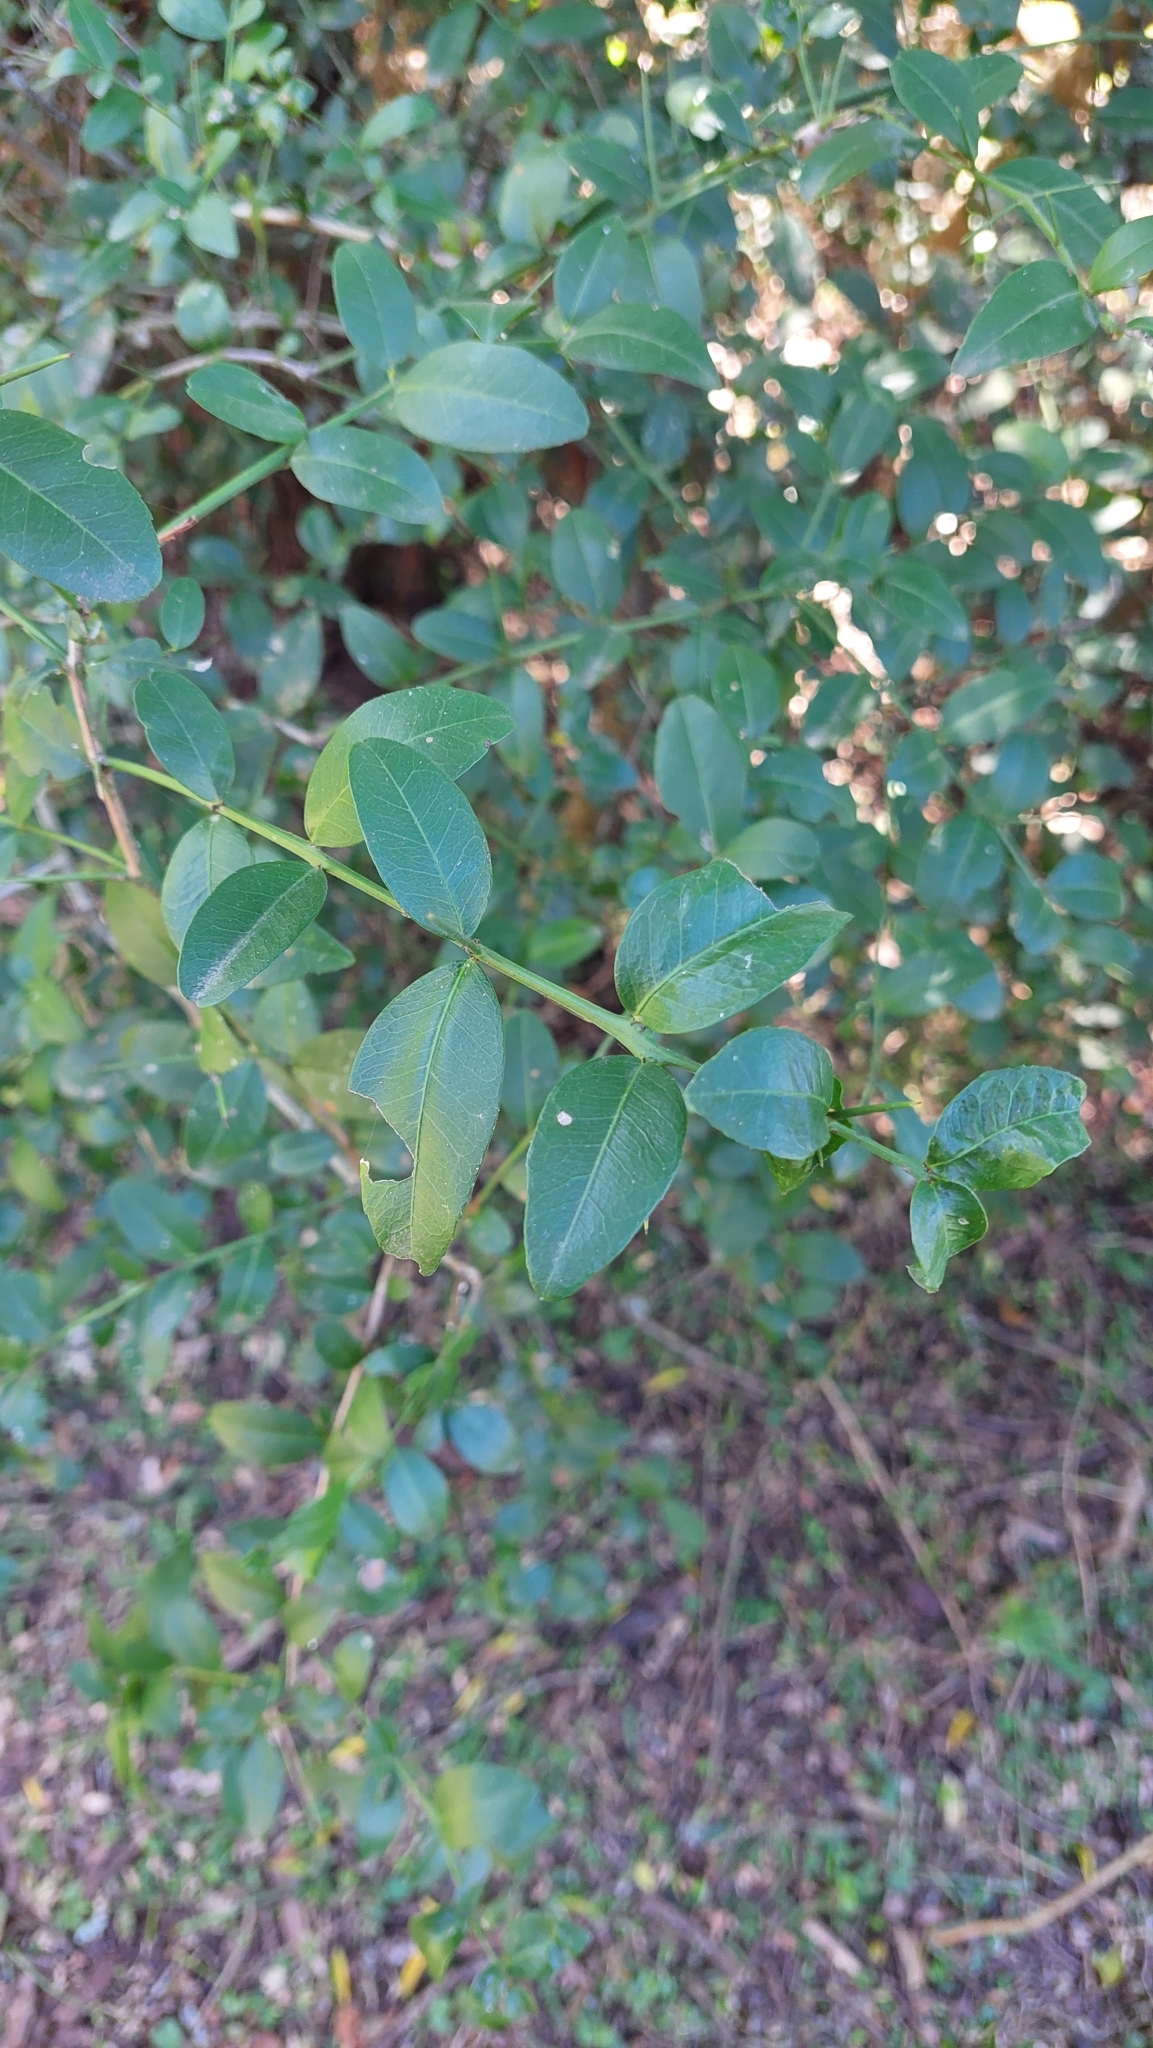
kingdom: Plantae
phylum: Tracheophyta
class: Magnoliopsida
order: Rosales
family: Rhamnaceae
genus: Scutia
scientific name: Scutia buxifolia
